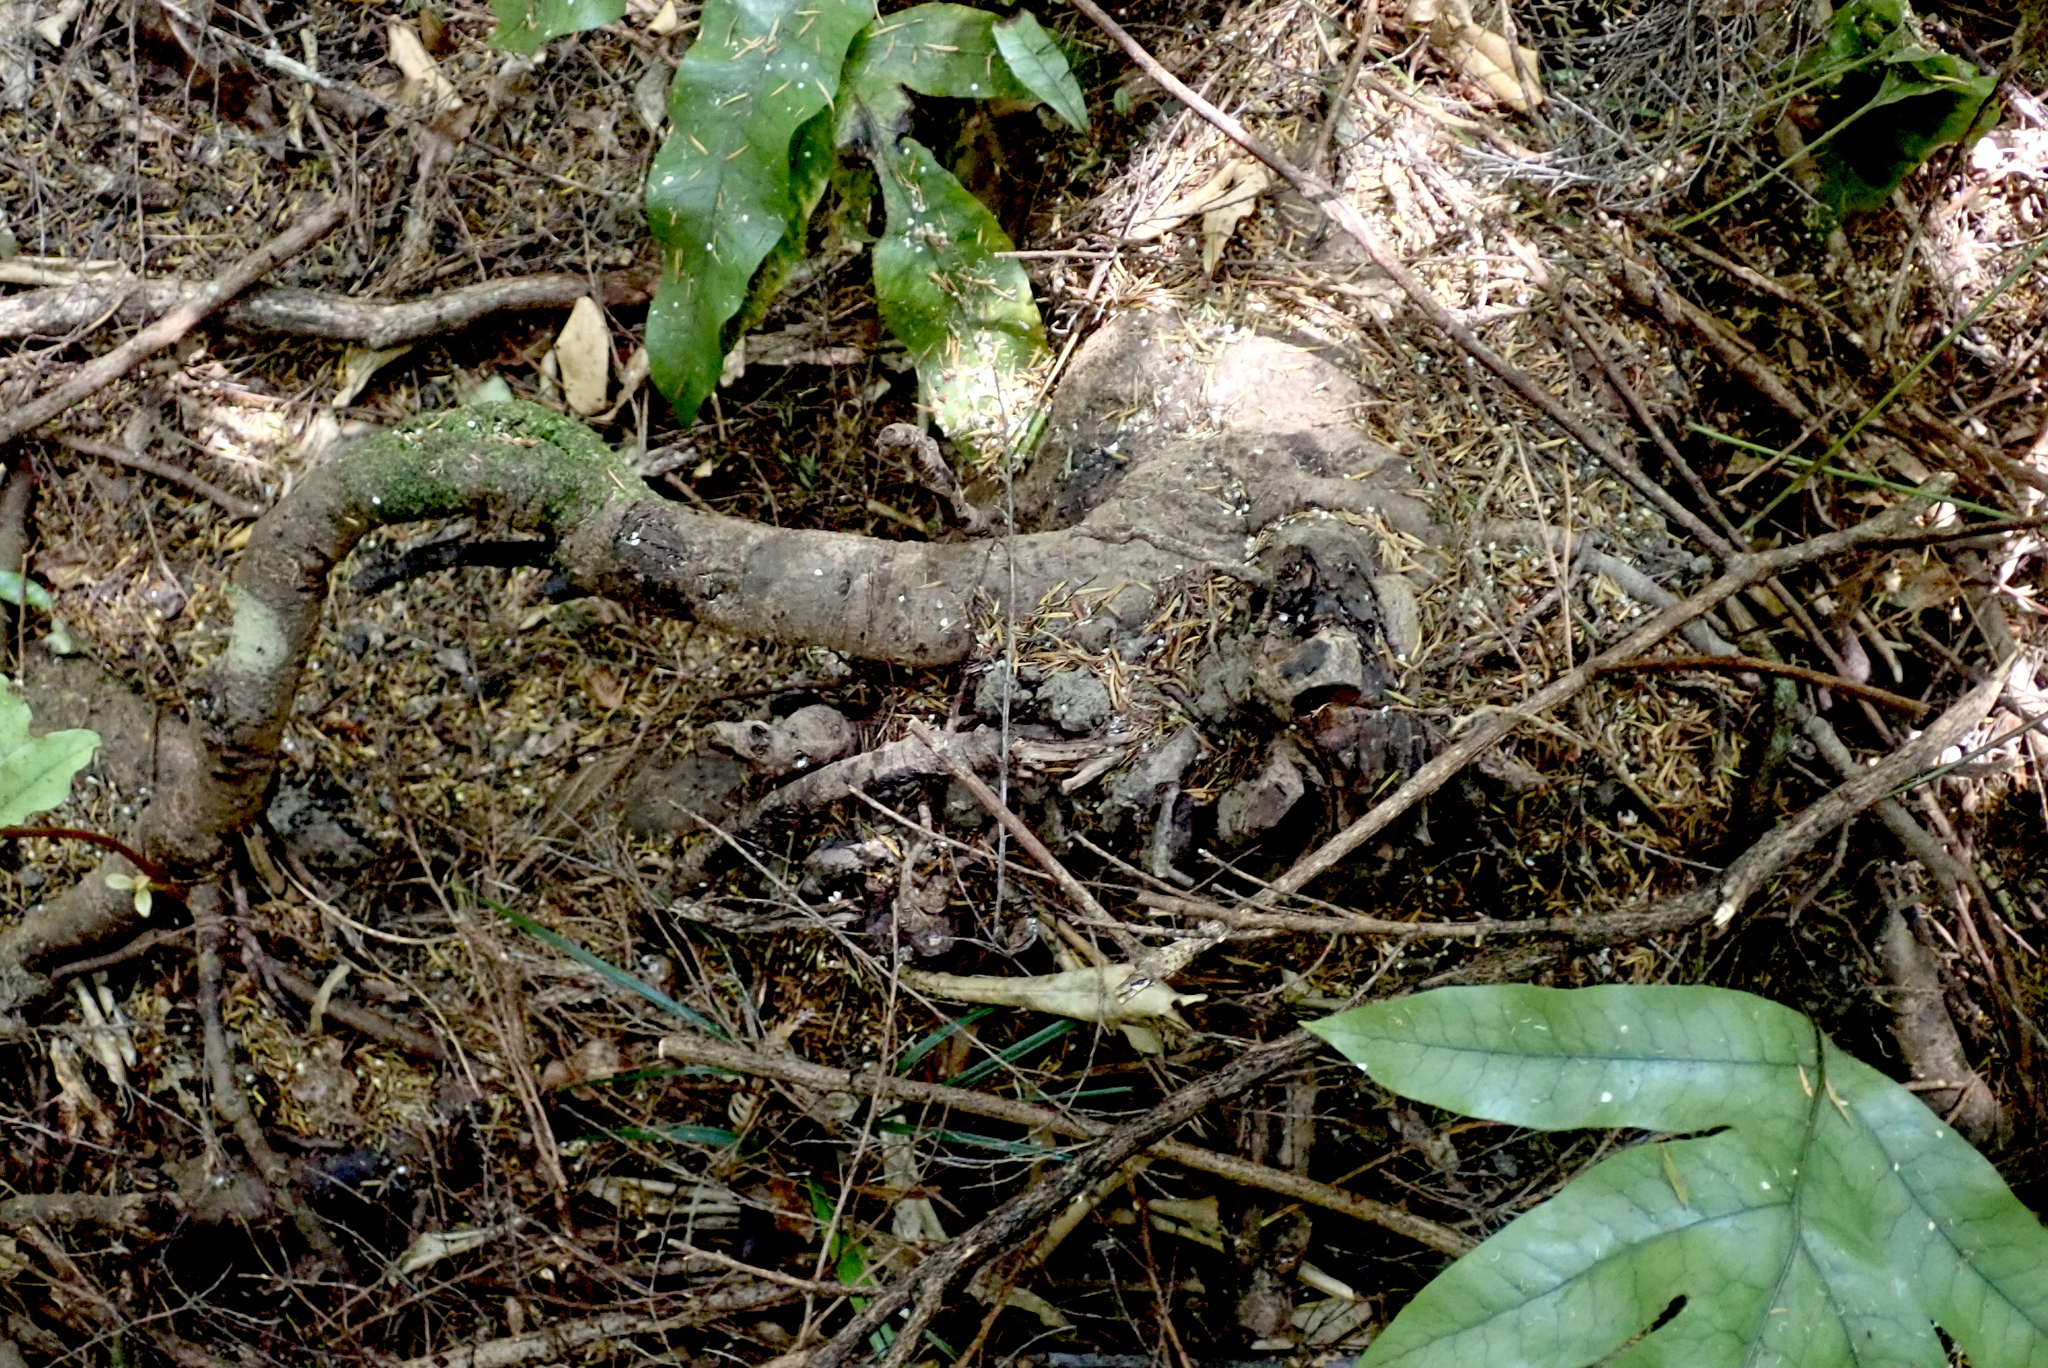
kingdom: Plantae
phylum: Tracheophyta
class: Liliopsida
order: Arecales
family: Arecaceae
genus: Rhopalostylis
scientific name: Rhopalostylis sapida
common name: Feather-duster palm
